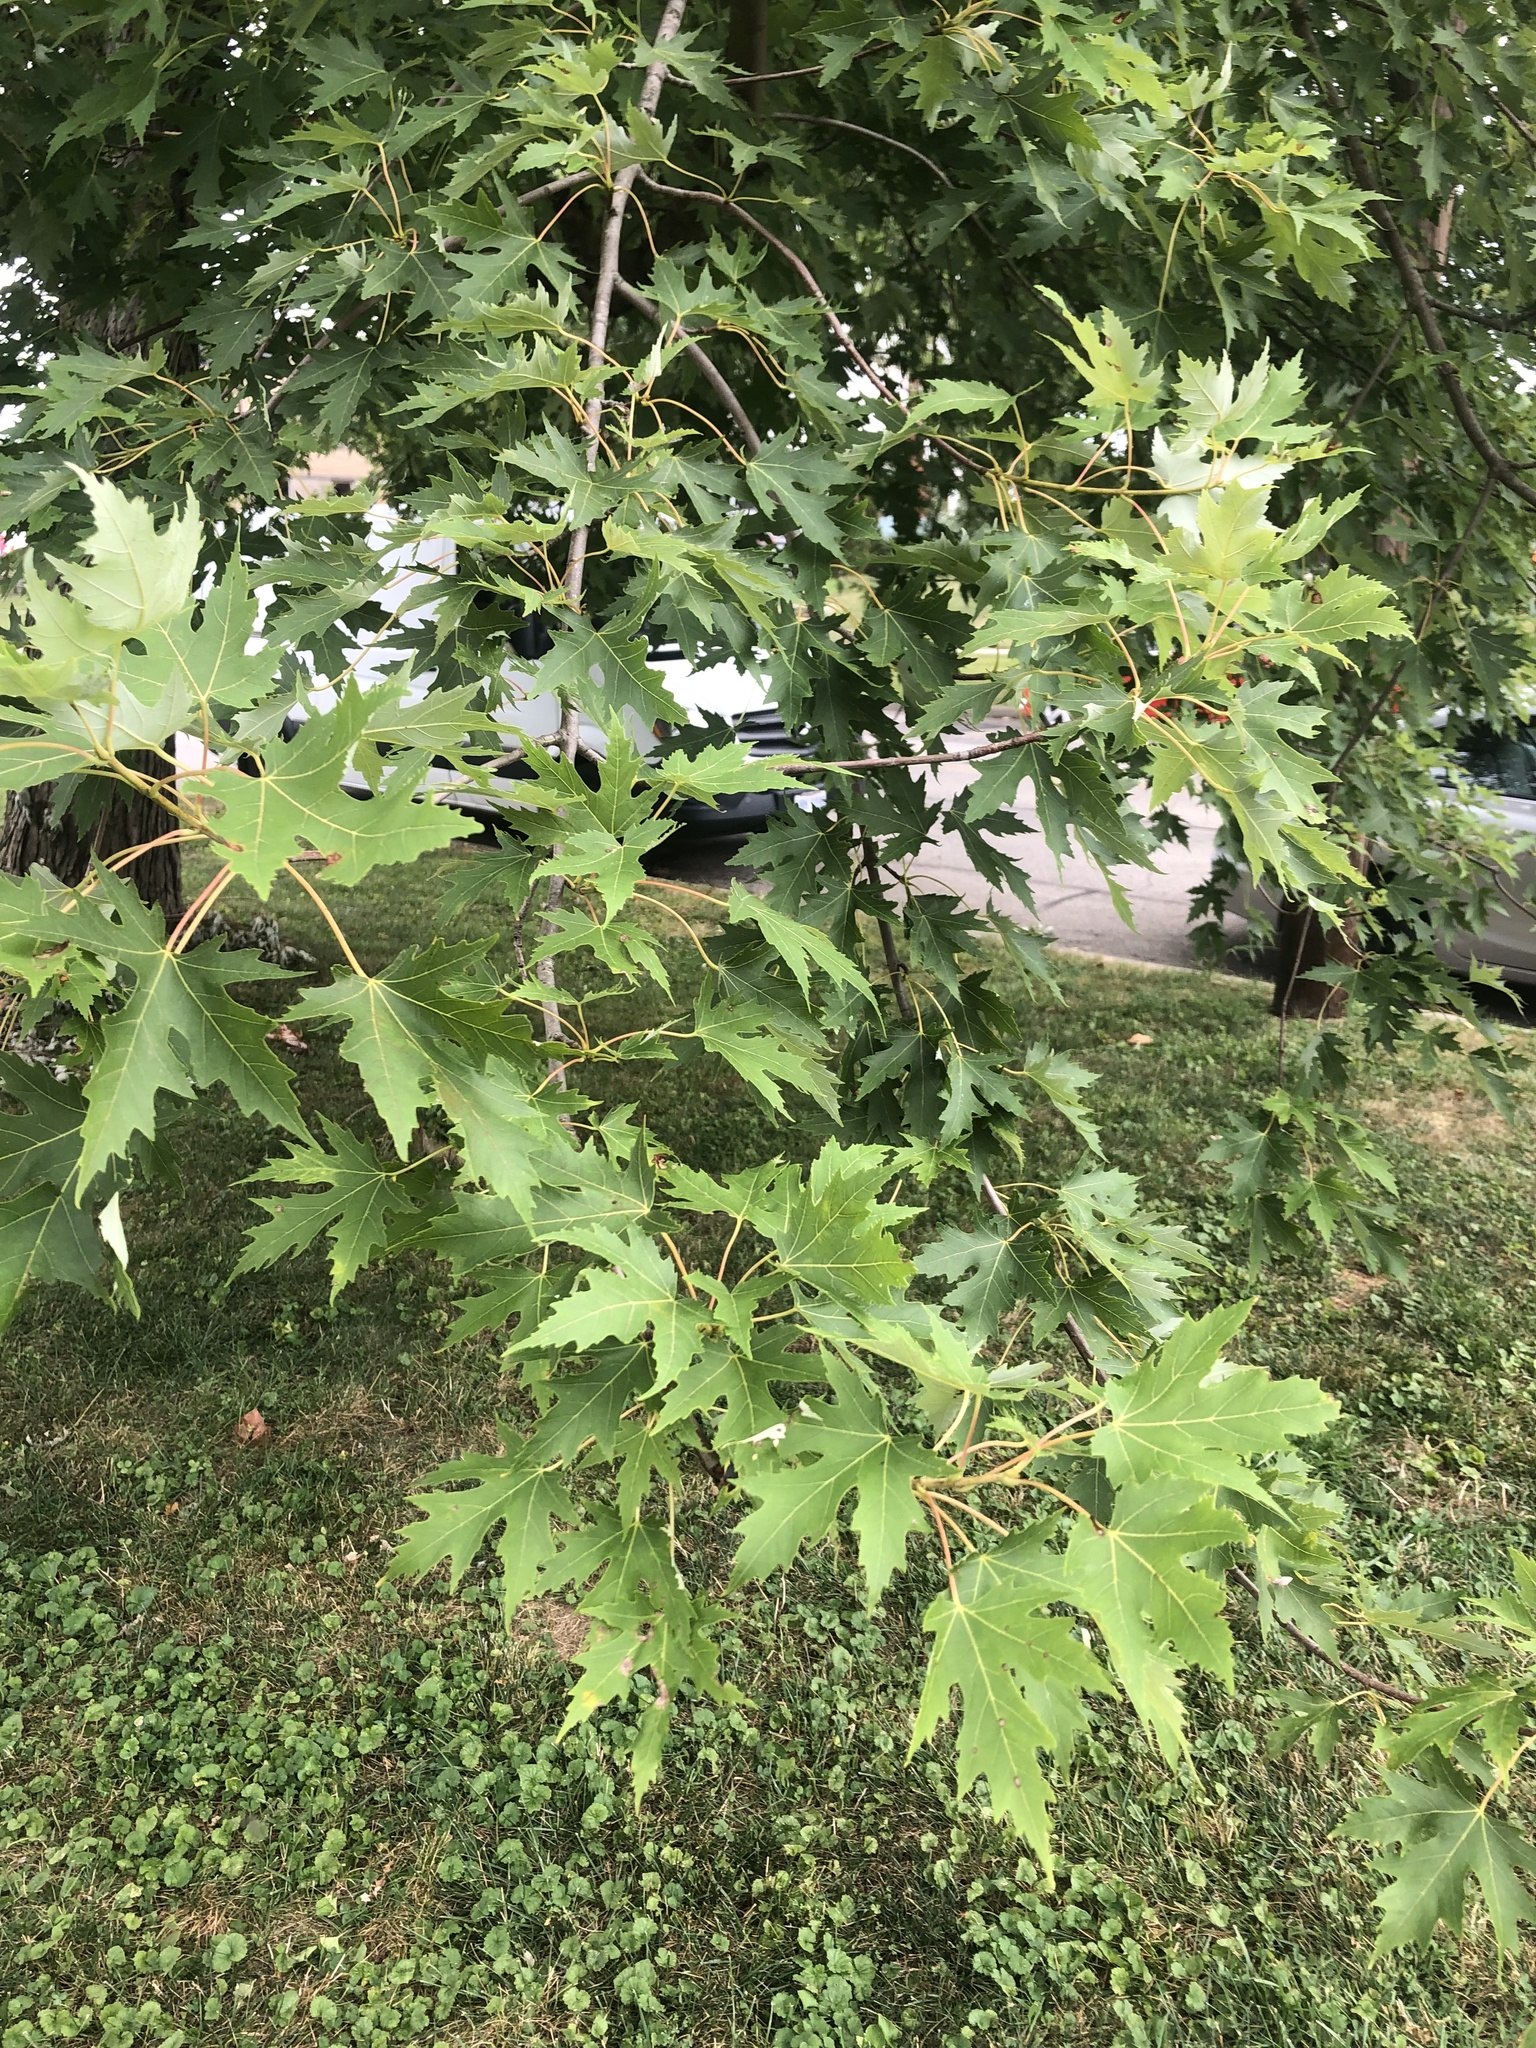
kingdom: Plantae
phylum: Tracheophyta
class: Magnoliopsida
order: Sapindales
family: Sapindaceae
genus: Acer
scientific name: Acer saccharinum
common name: Silver maple
